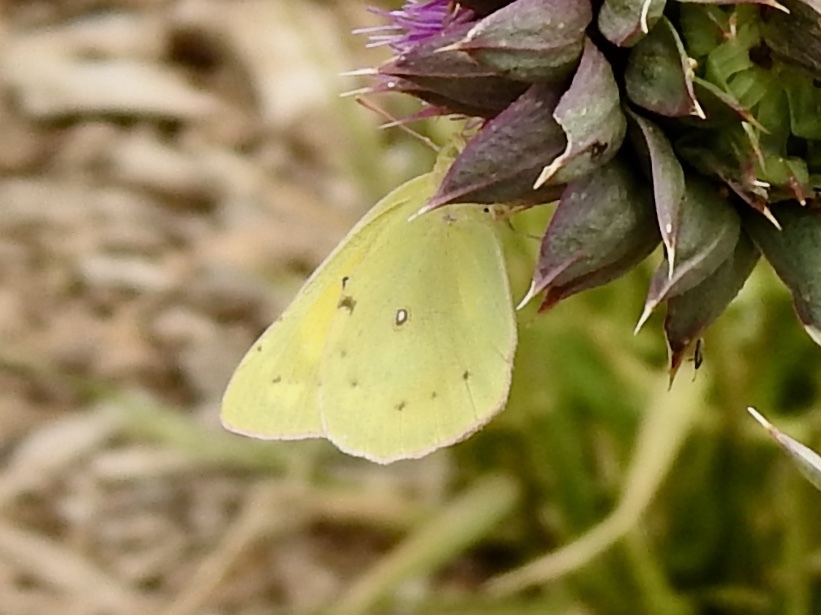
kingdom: Animalia
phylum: Arthropoda
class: Insecta
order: Lepidoptera
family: Pieridae
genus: Colias
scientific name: Colias eurytheme
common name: Alfalfa butterfly
